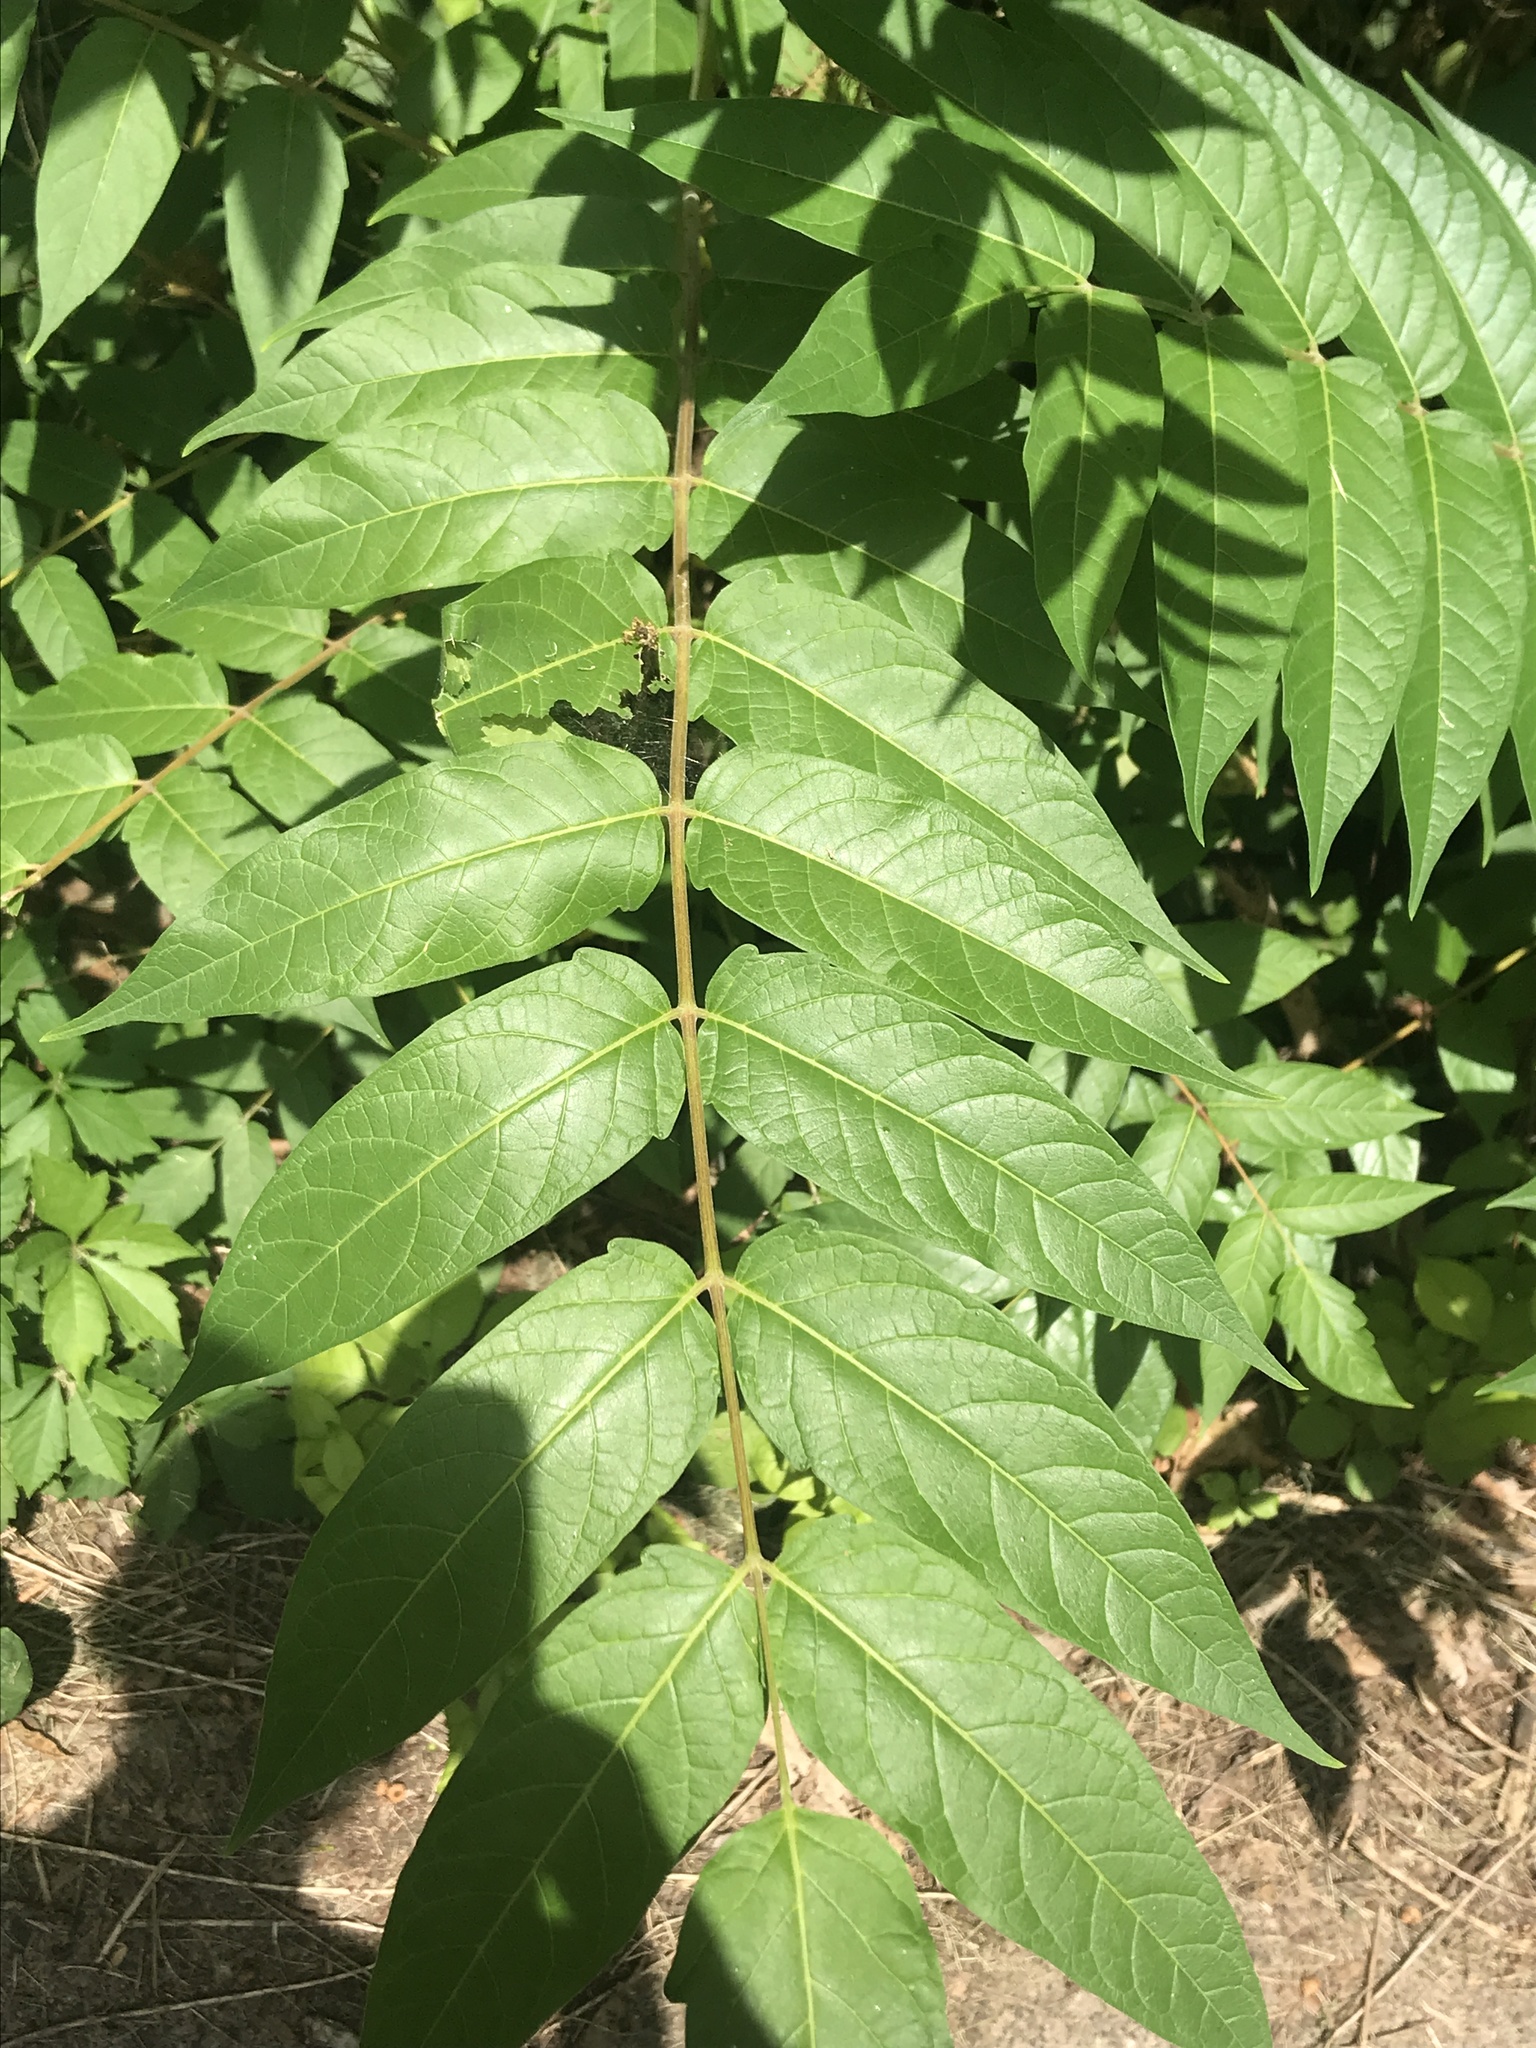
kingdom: Plantae
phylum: Tracheophyta
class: Magnoliopsida
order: Sapindales
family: Simaroubaceae
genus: Ailanthus
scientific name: Ailanthus altissima
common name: Tree-of-heaven
